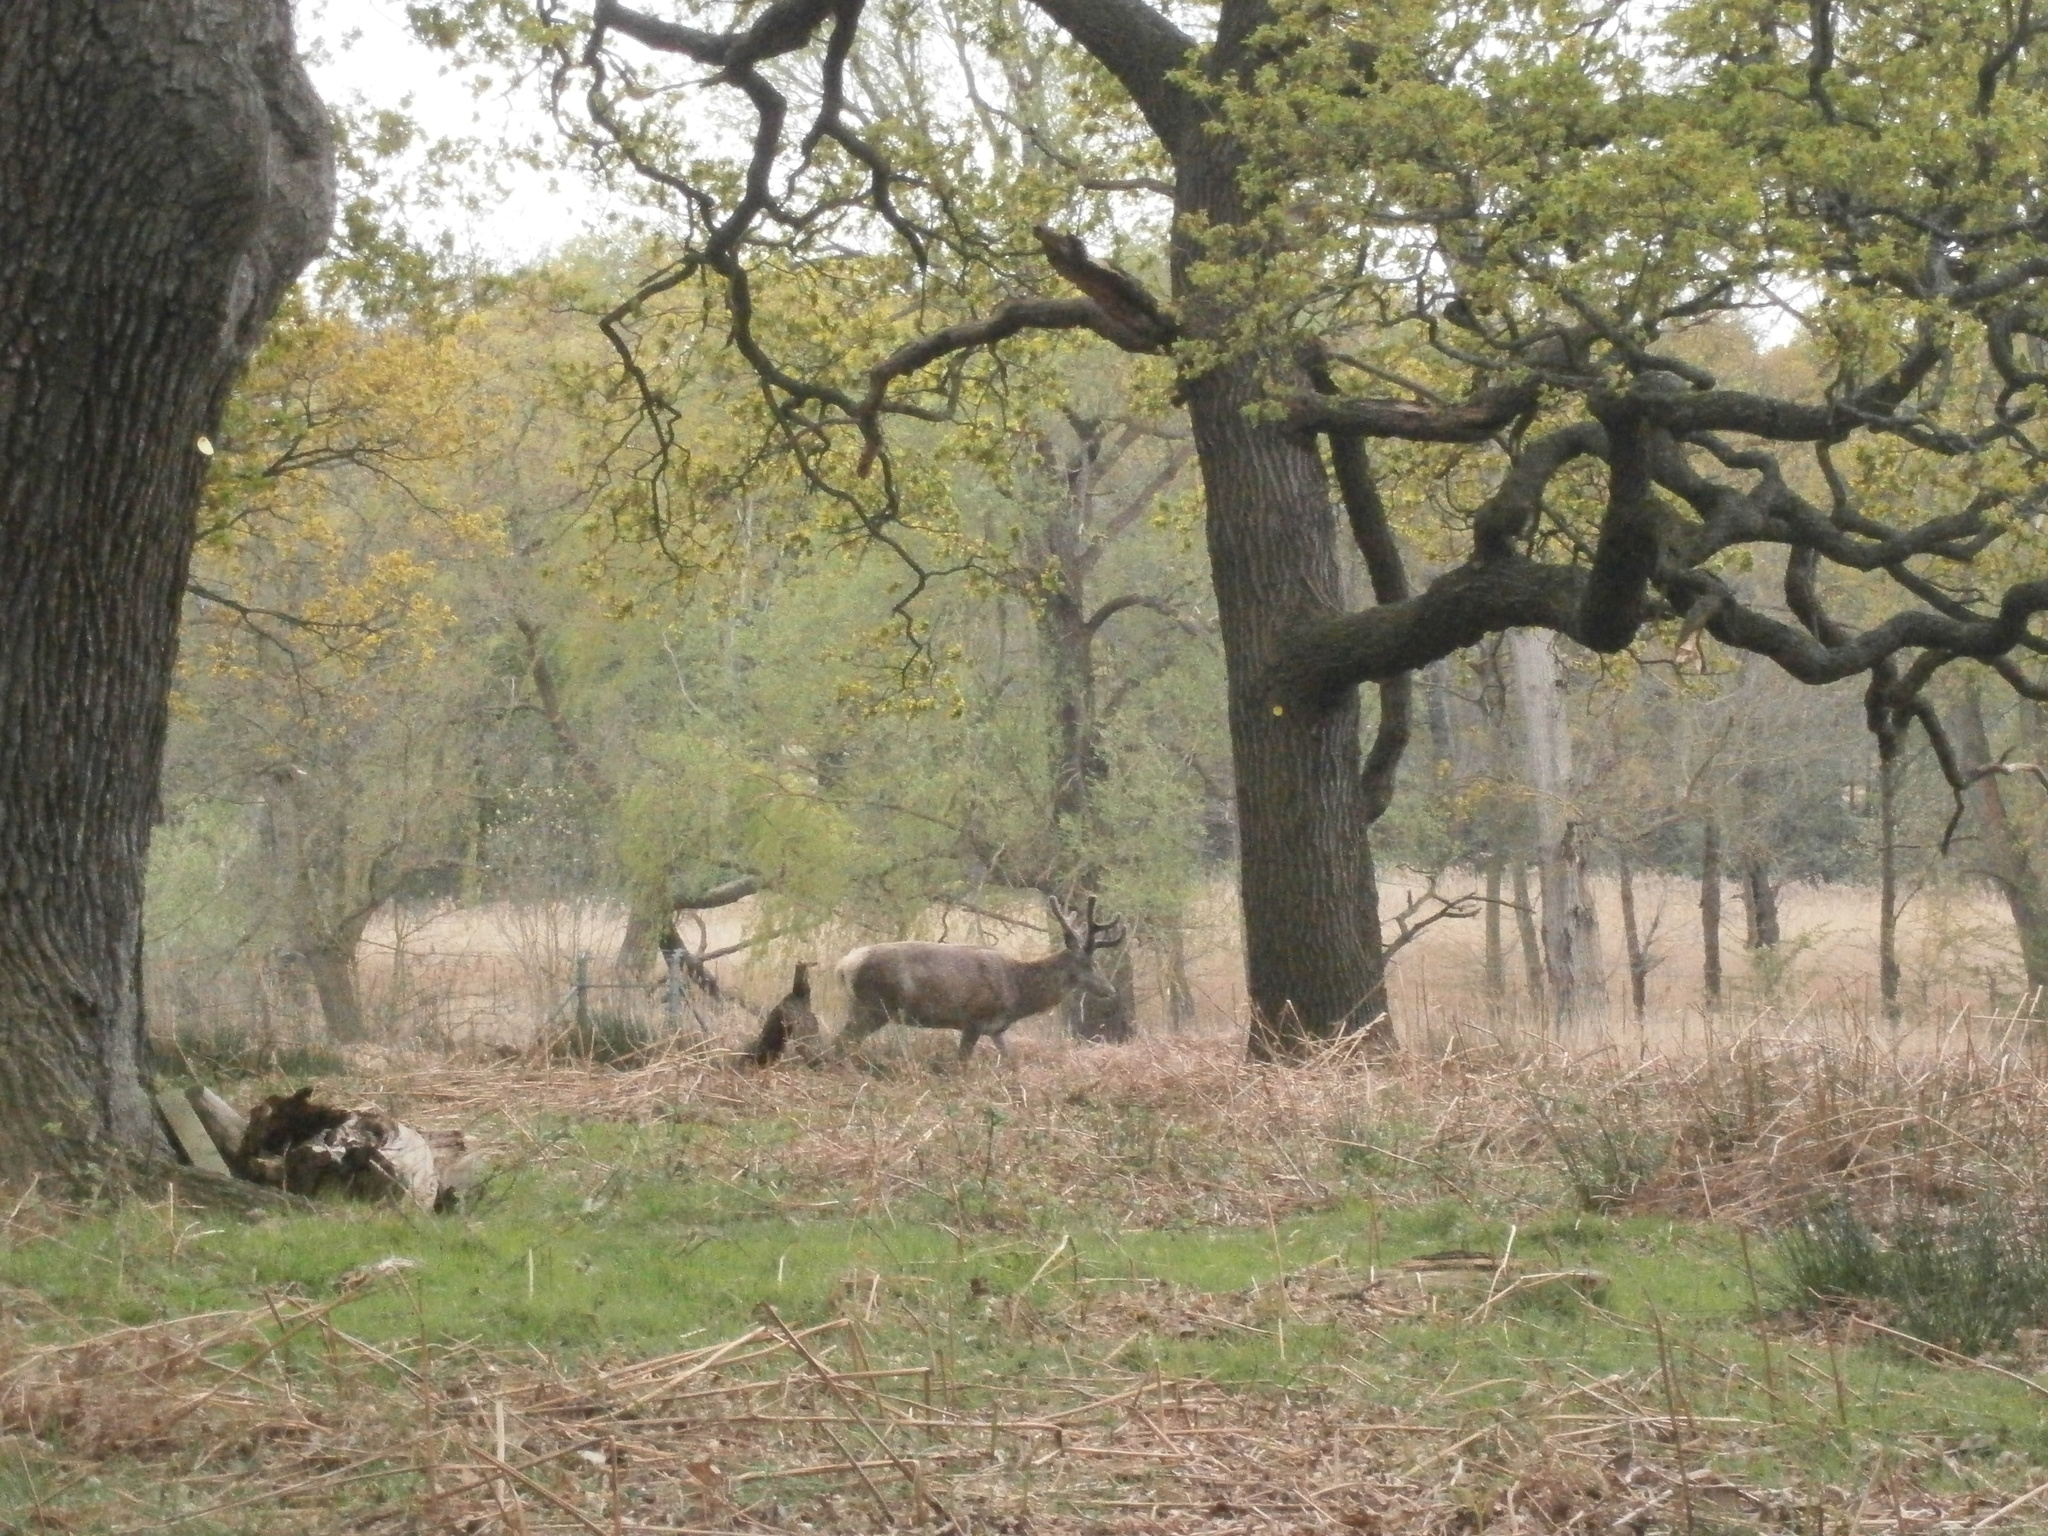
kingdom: Animalia
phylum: Chordata
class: Mammalia
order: Artiodactyla
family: Cervidae
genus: Cervus
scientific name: Cervus elaphus
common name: Red deer
